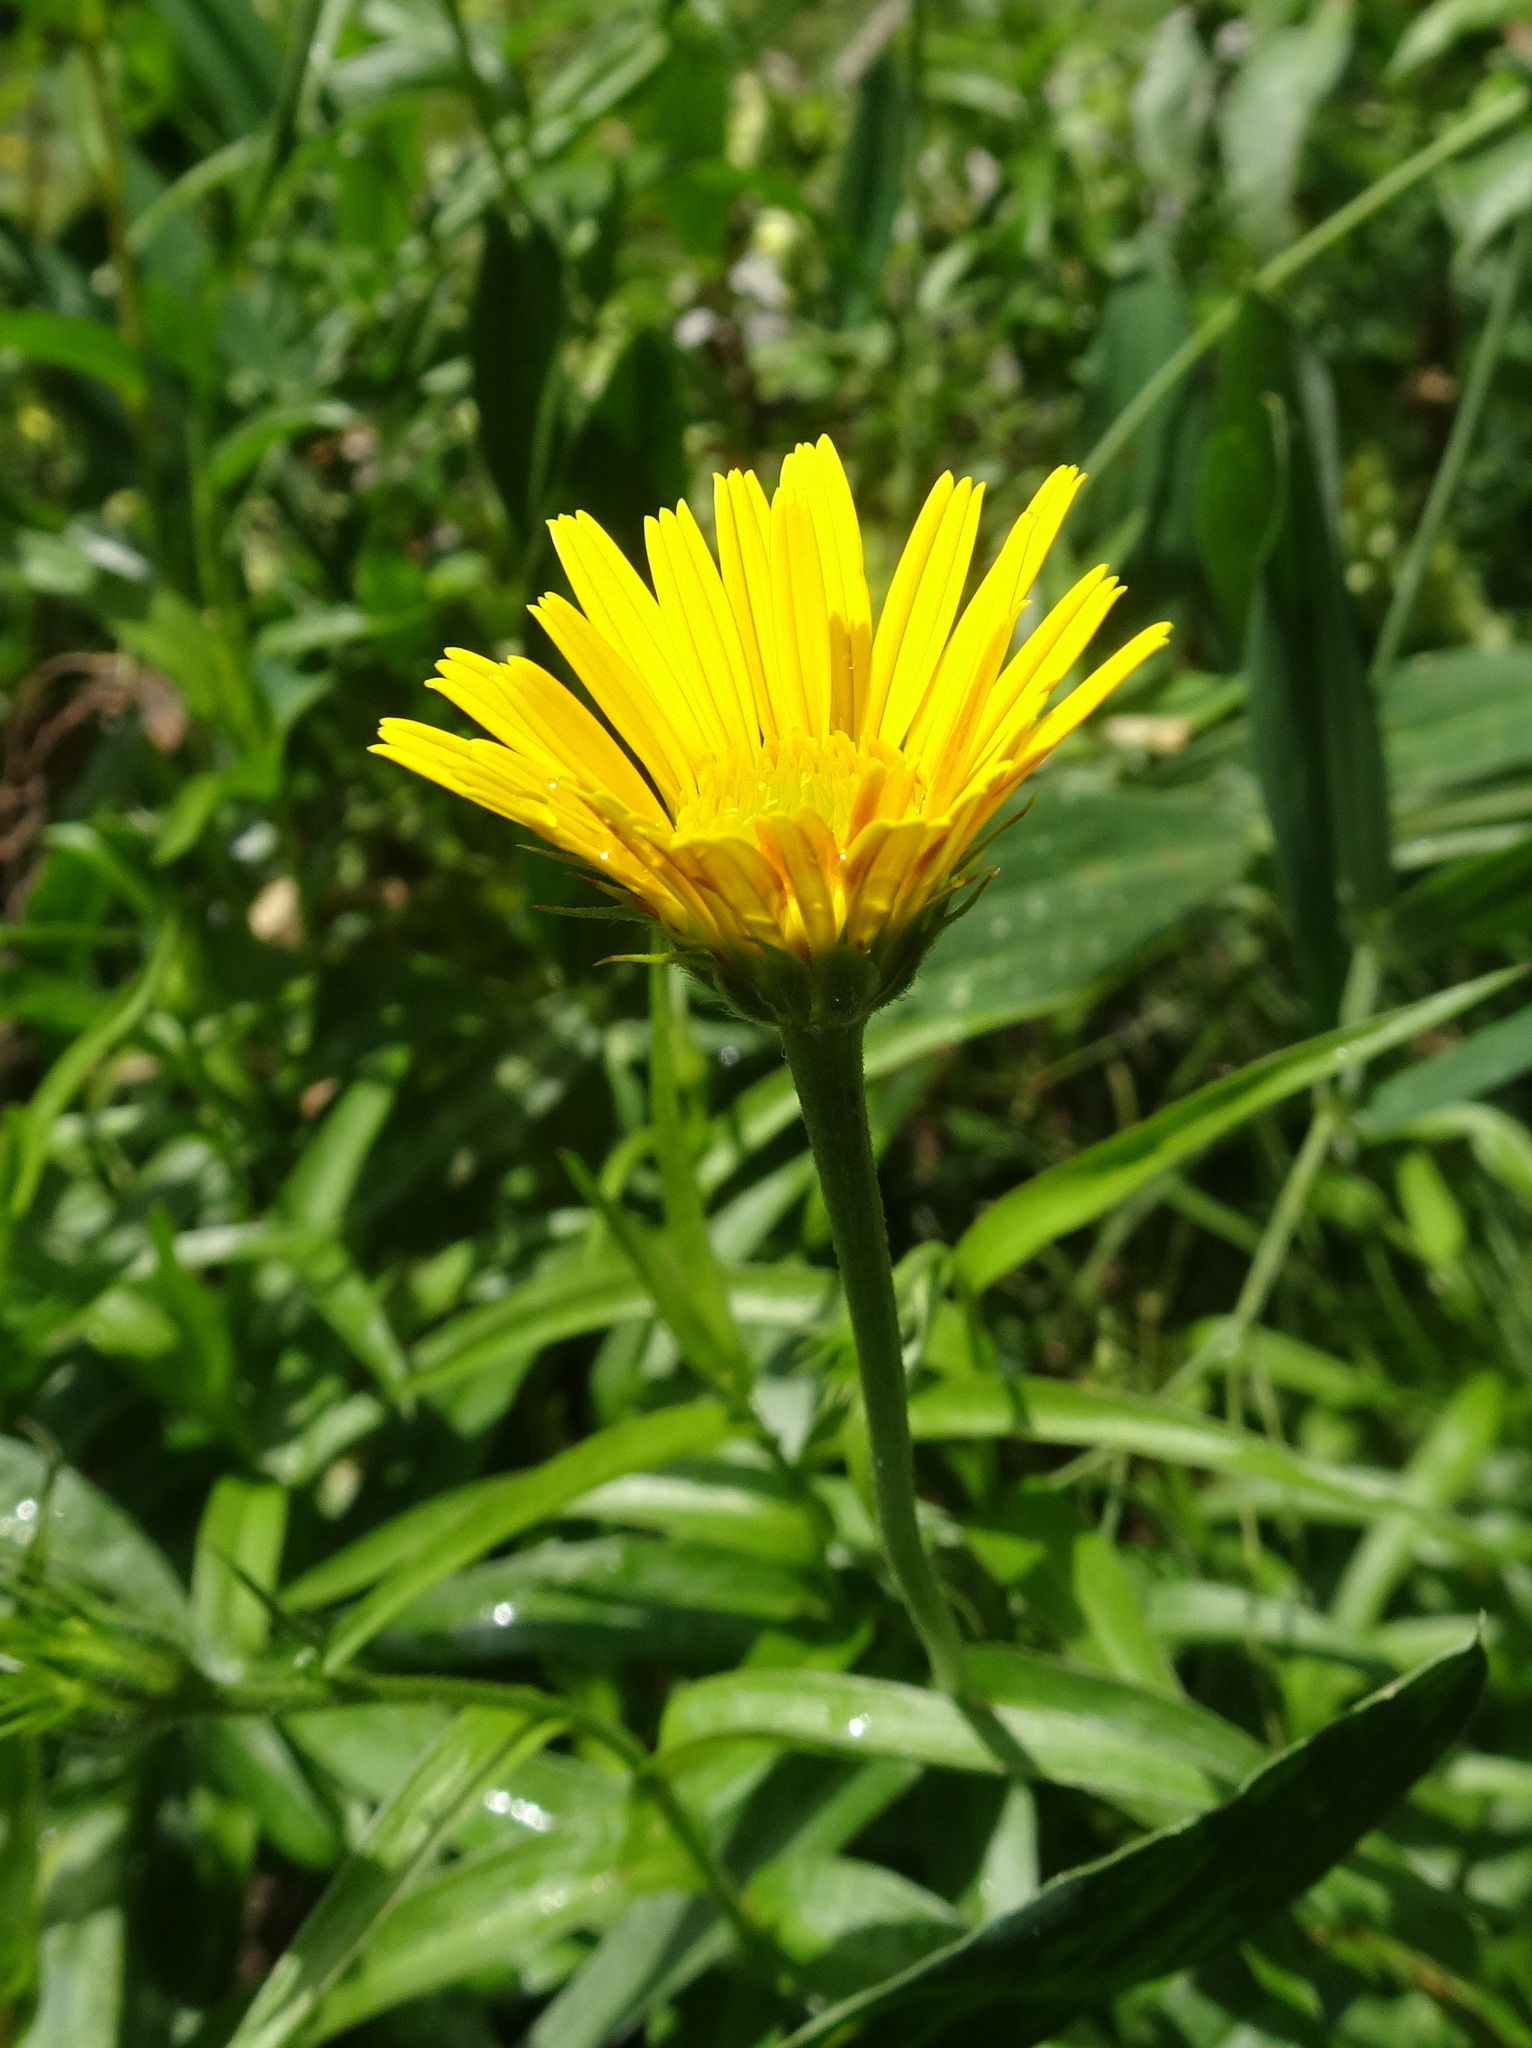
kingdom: Plantae
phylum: Tracheophyta
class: Magnoliopsida
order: Asterales
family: Asteraceae
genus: Buphthalmum
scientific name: Buphthalmum salicifolium
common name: Willow-leaved yellow-oxeye
